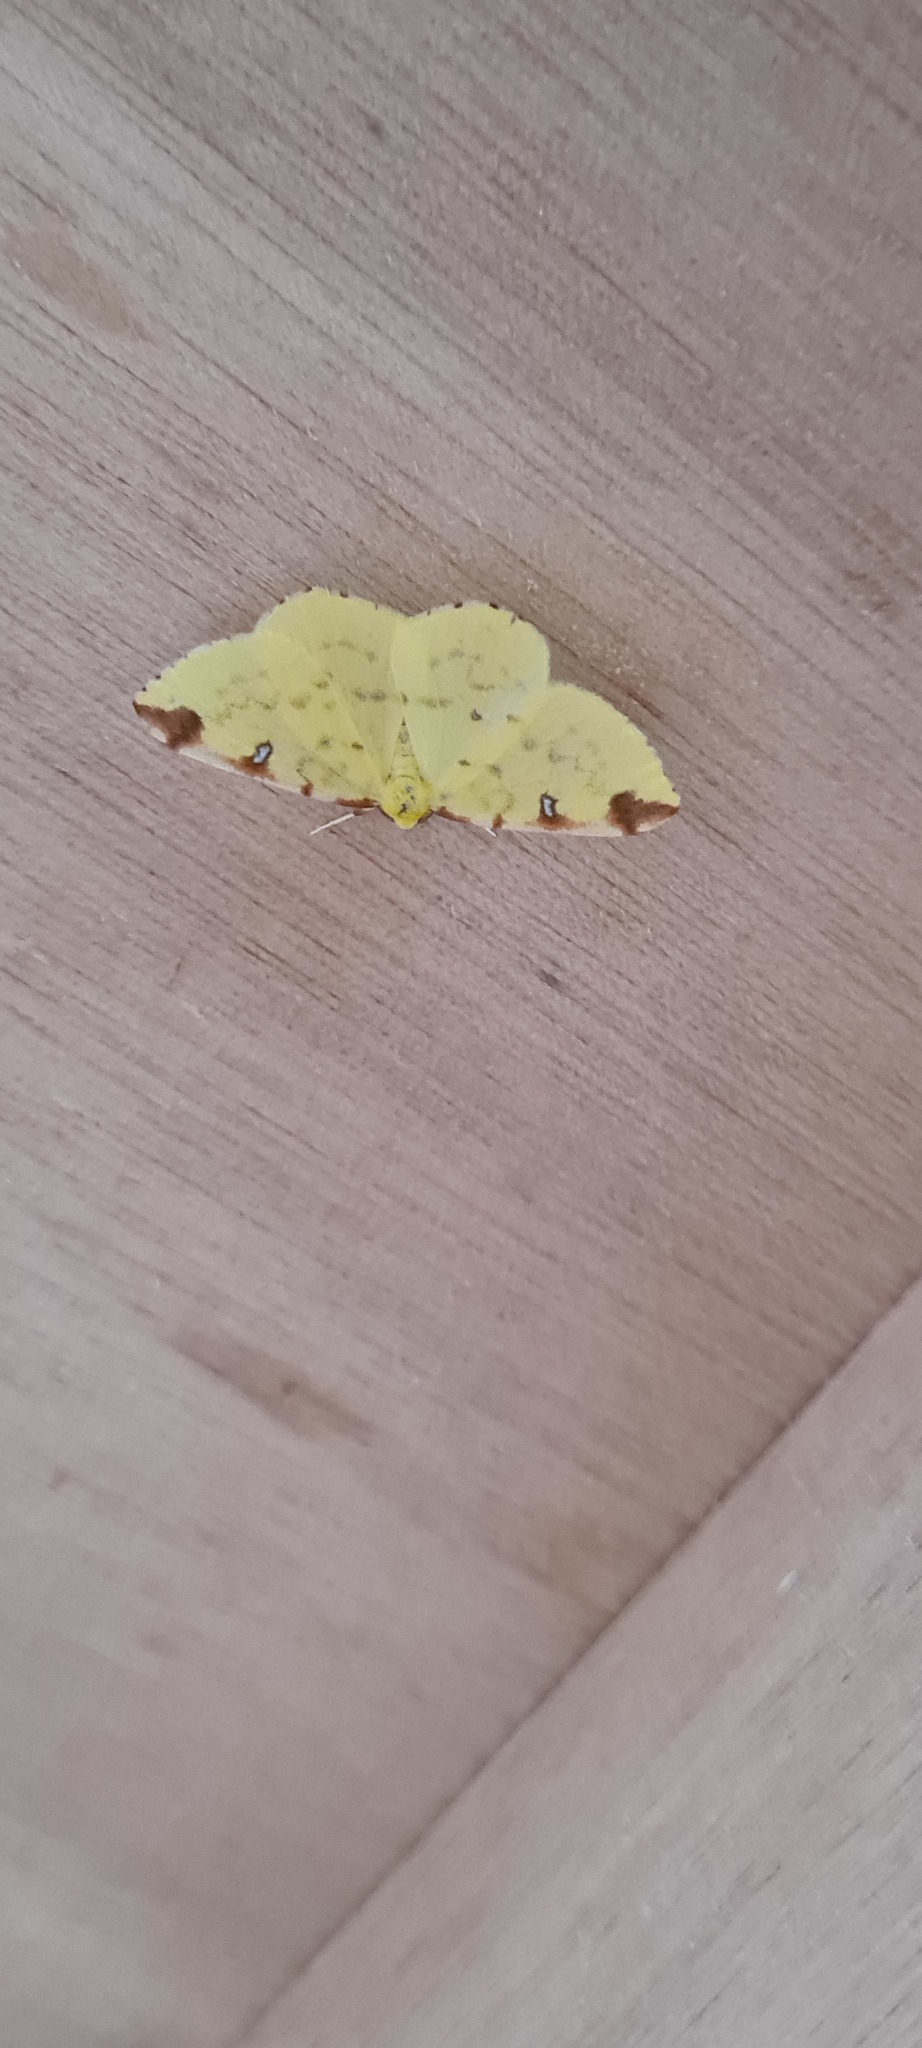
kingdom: Animalia
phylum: Arthropoda
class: Insecta
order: Lepidoptera
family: Geometridae
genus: Opisthograptis
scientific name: Opisthograptis luteolata
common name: Brimstone moth
